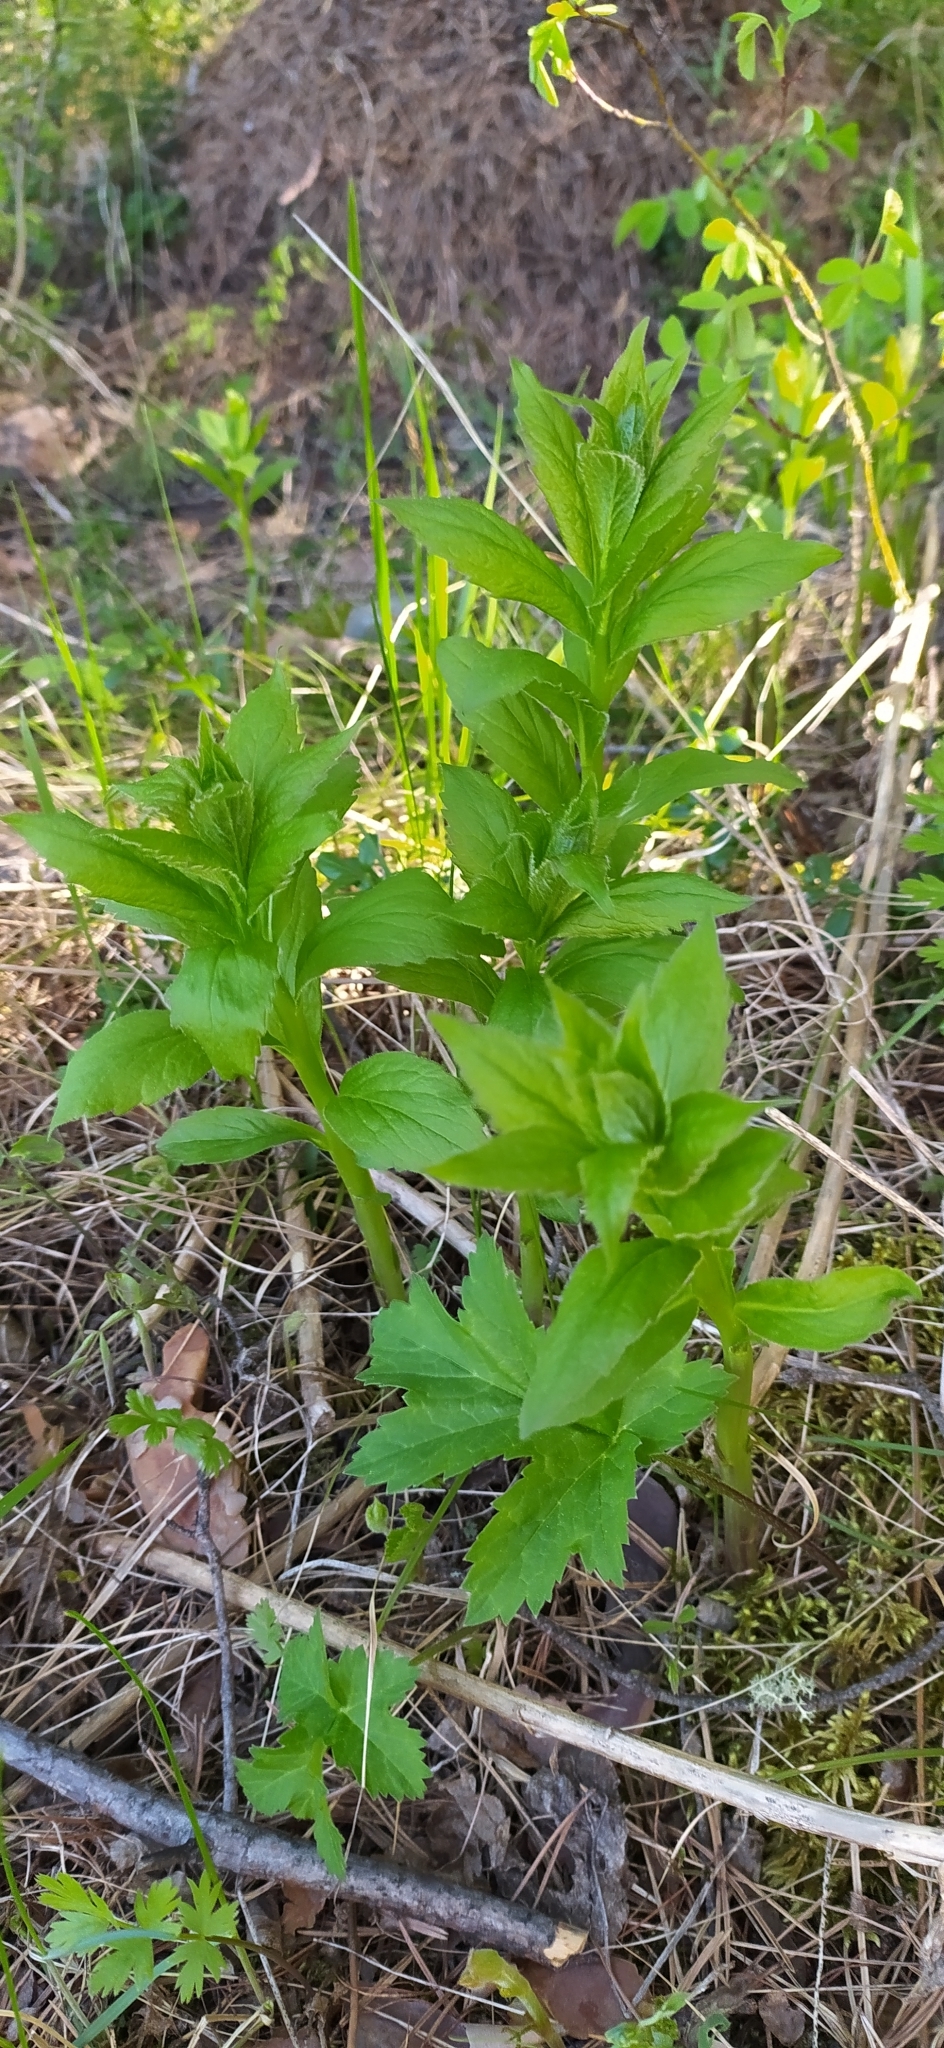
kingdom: Plantae
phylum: Tracheophyta
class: Magnoliopsida
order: Asterales
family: Campanulaceae
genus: Adenophora
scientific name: Adenophora liliifolia
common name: Lilyleaf ladybells
